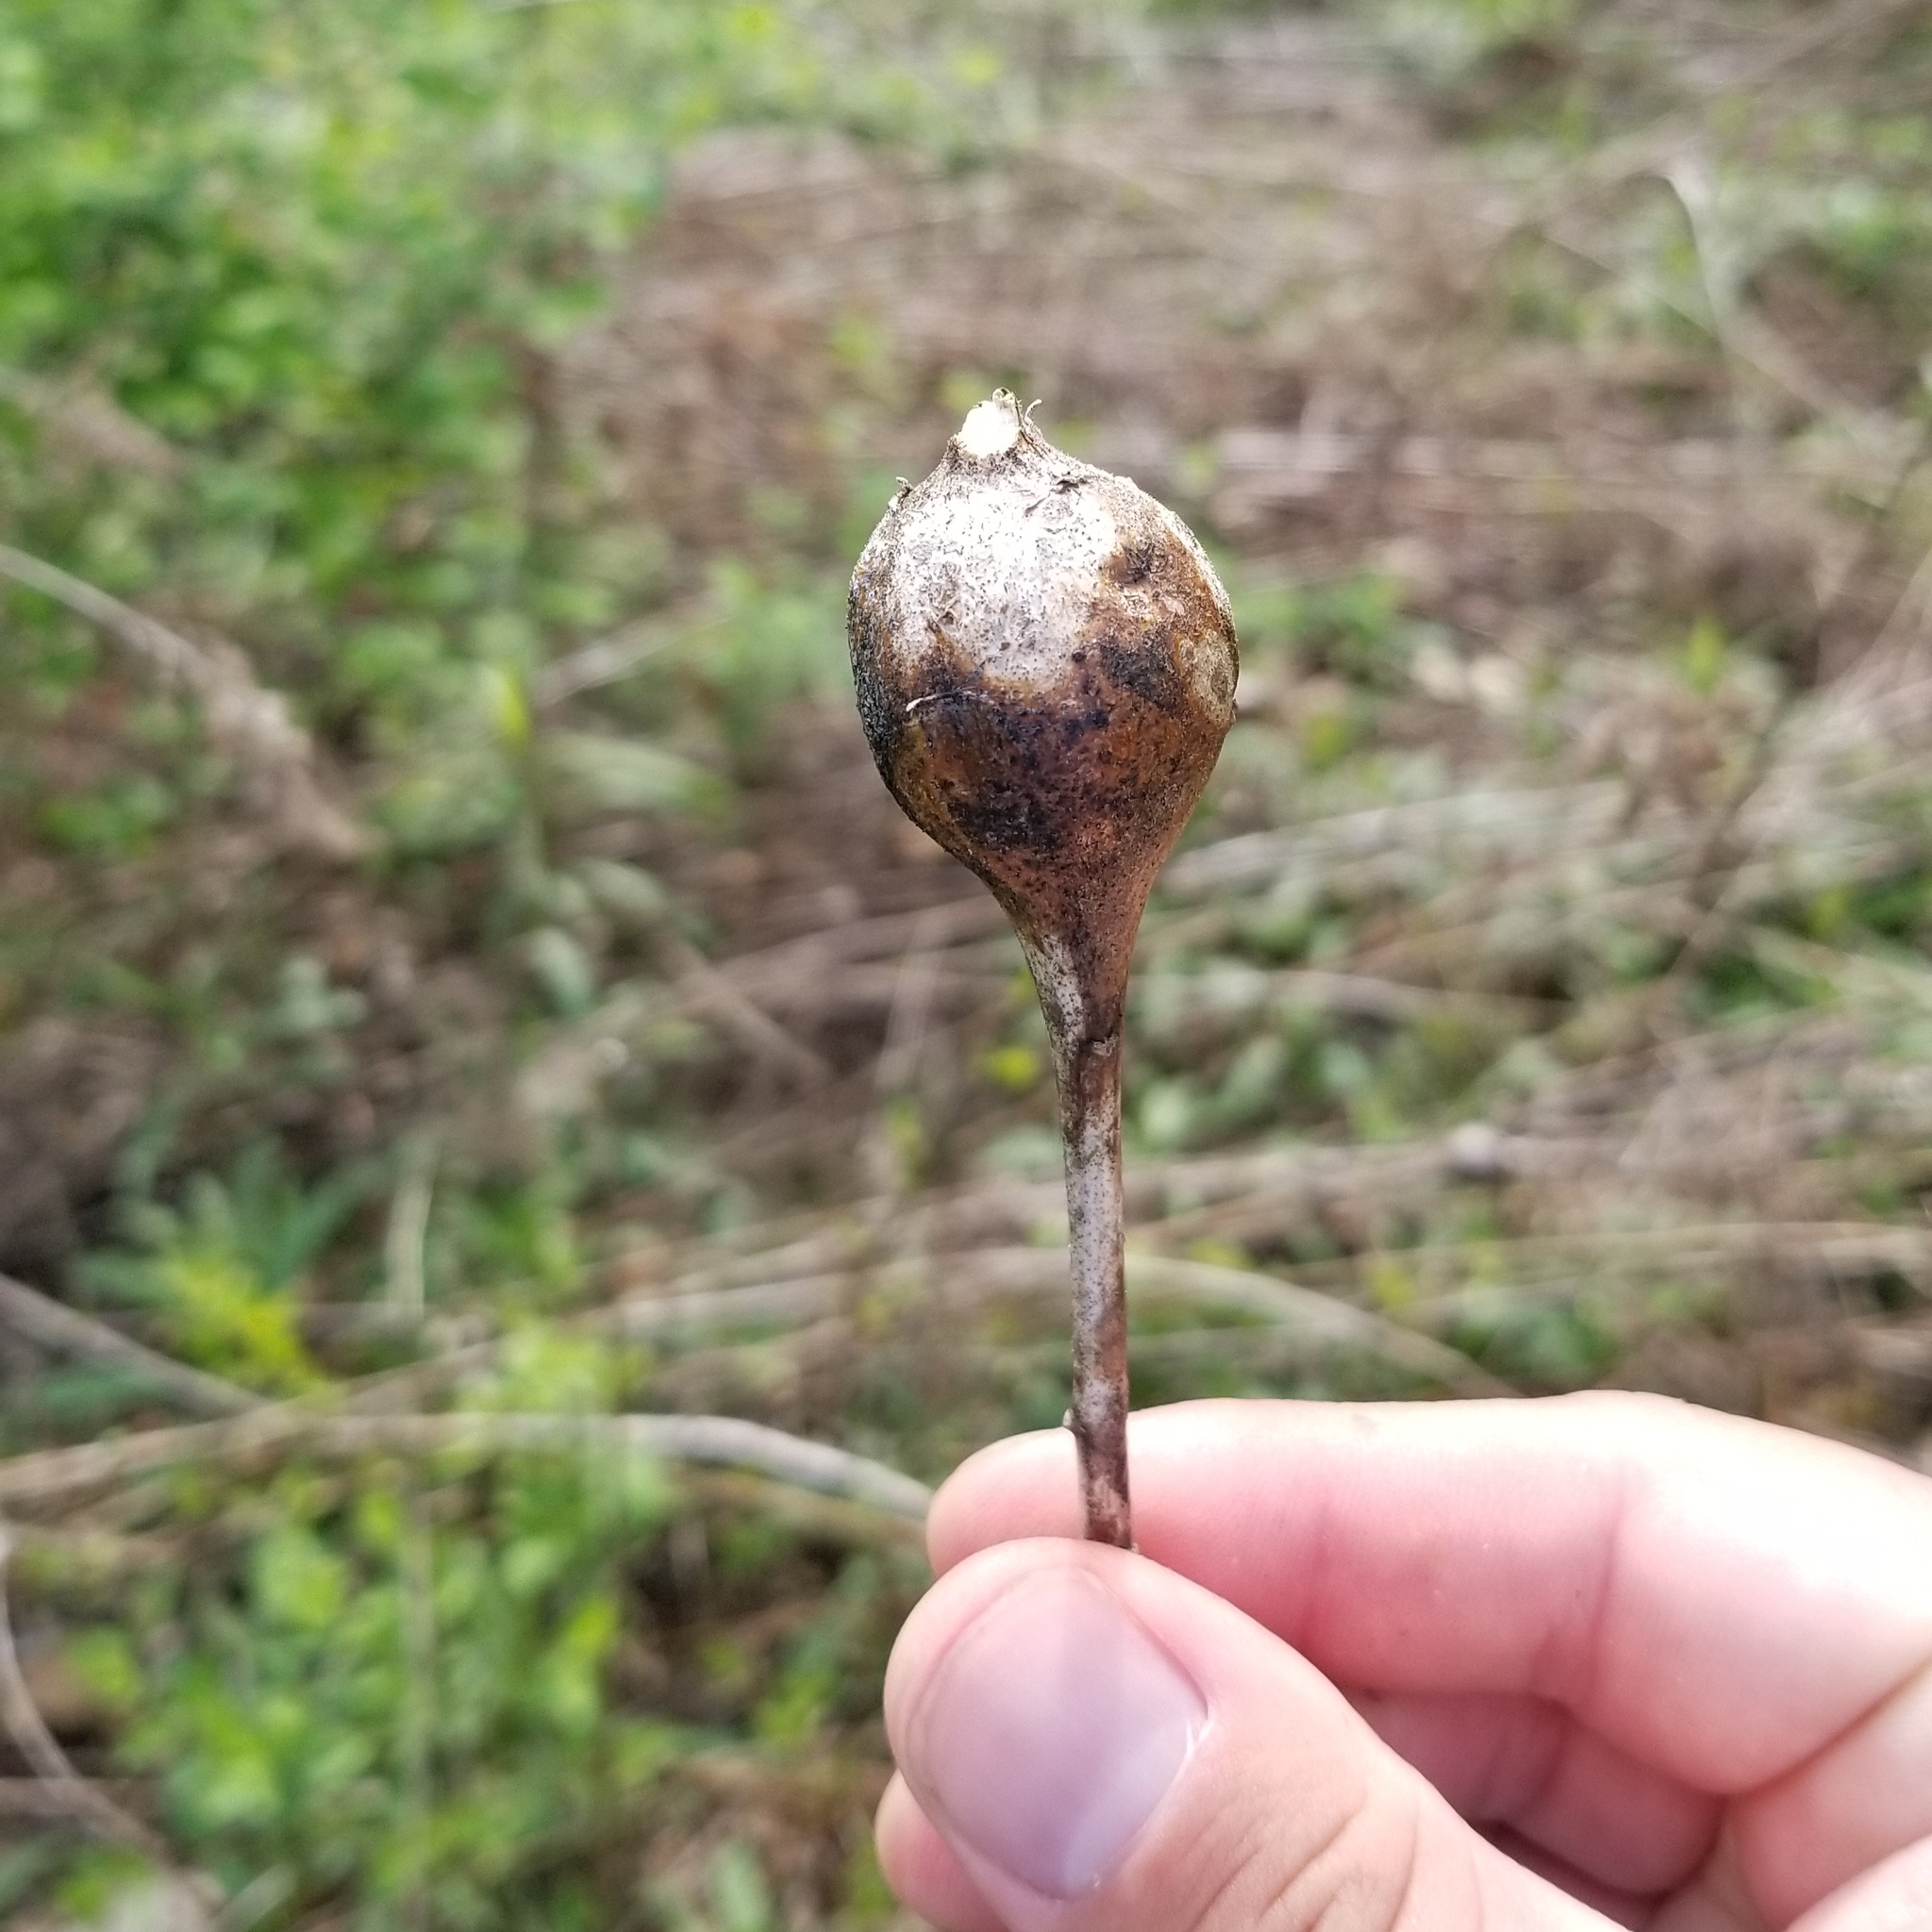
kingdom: Animalia
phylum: Arthropoda
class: Insecta
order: Diptera
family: Tephritidae
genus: Eurosta
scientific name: Eurosta solidaginis
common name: Goldenrod gall fly
